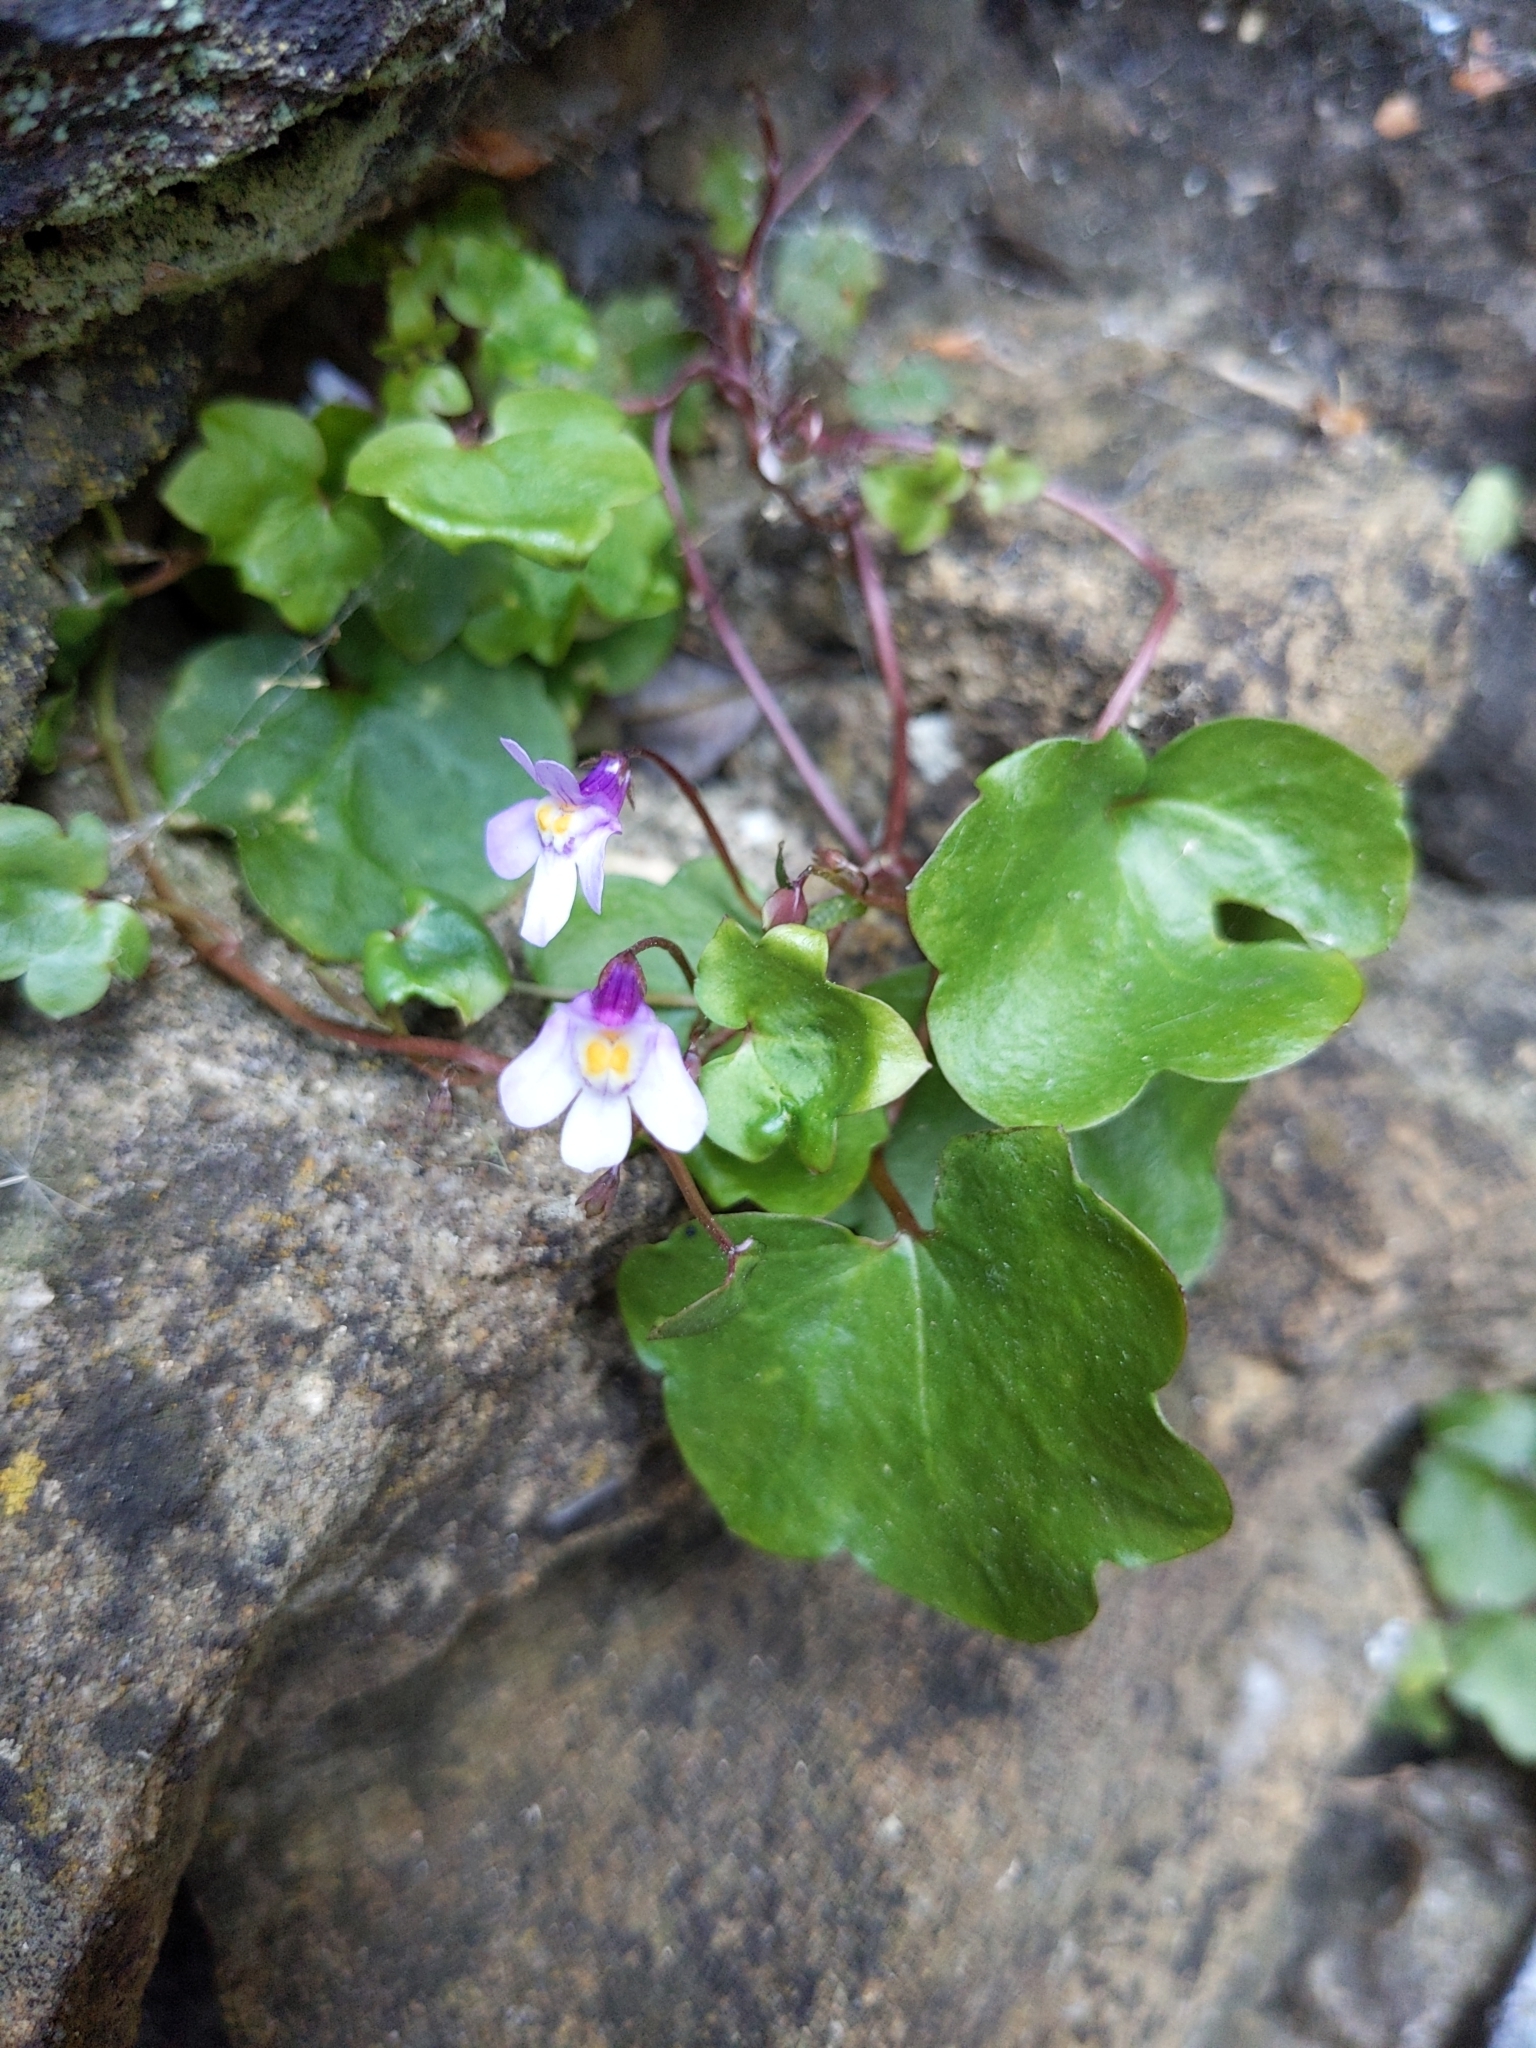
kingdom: Plantae
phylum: Tracheophyta
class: Magnoliopsida
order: Lamiales
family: Plantaginaceae
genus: Cymbalaria
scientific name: Cymbalaria muralis
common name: Ivy-leaved toadflax
